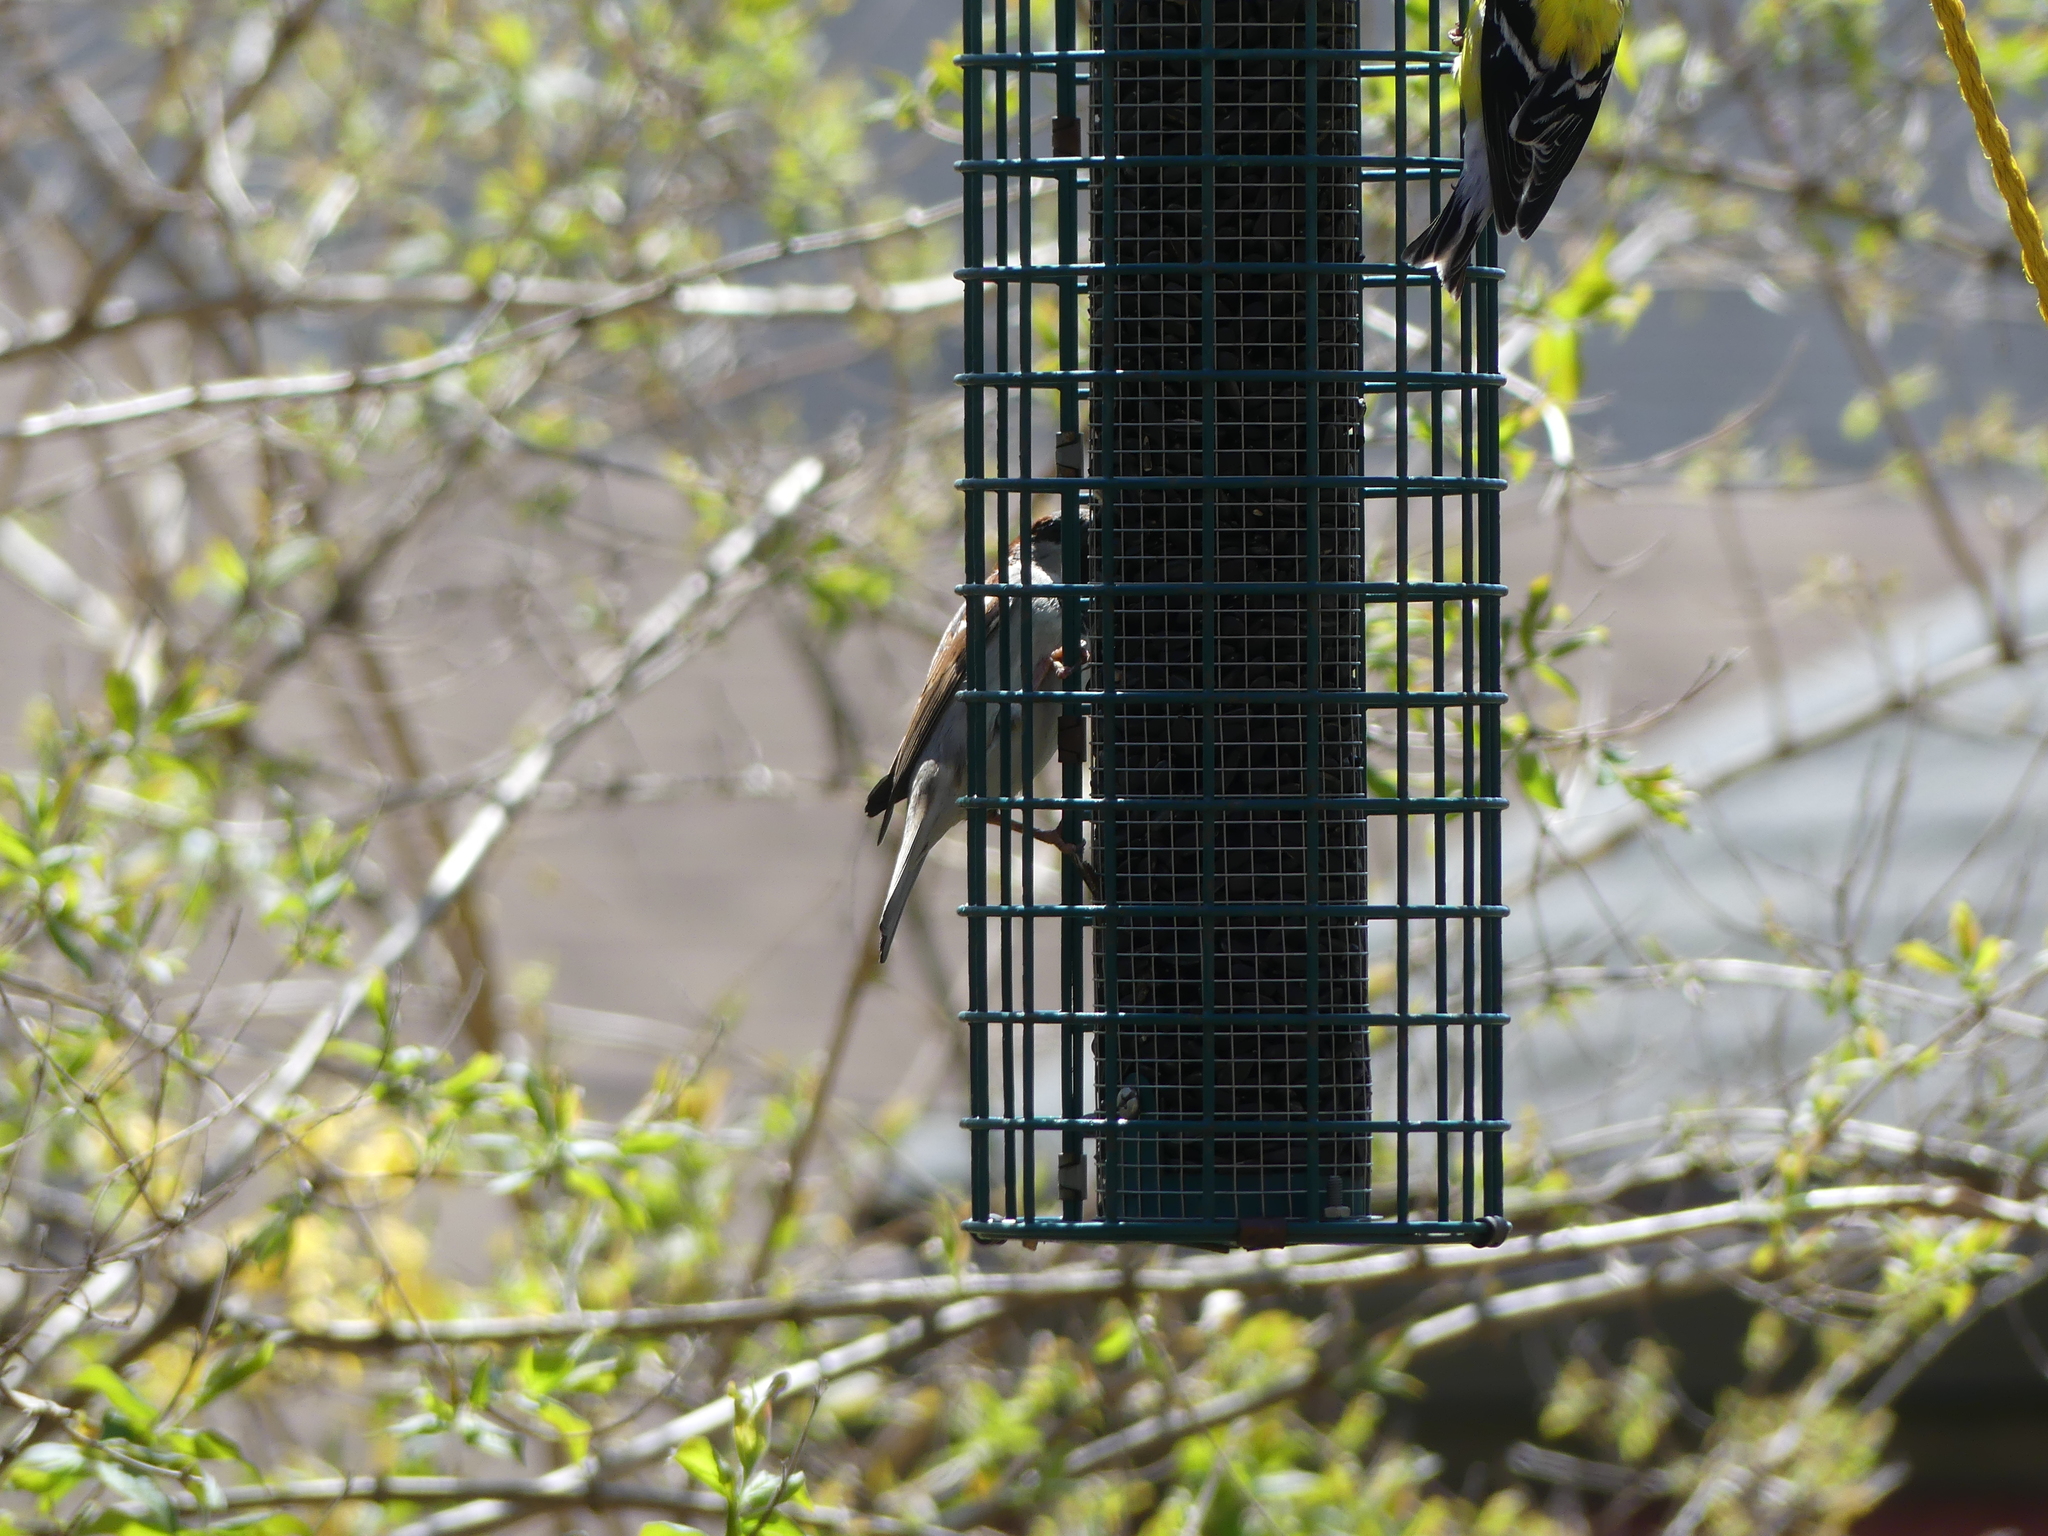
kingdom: Animalia
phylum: Chordata
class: Aves
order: Passeriformes
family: Passeridae
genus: Passer
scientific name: Passer domesticus
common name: House sparrow
